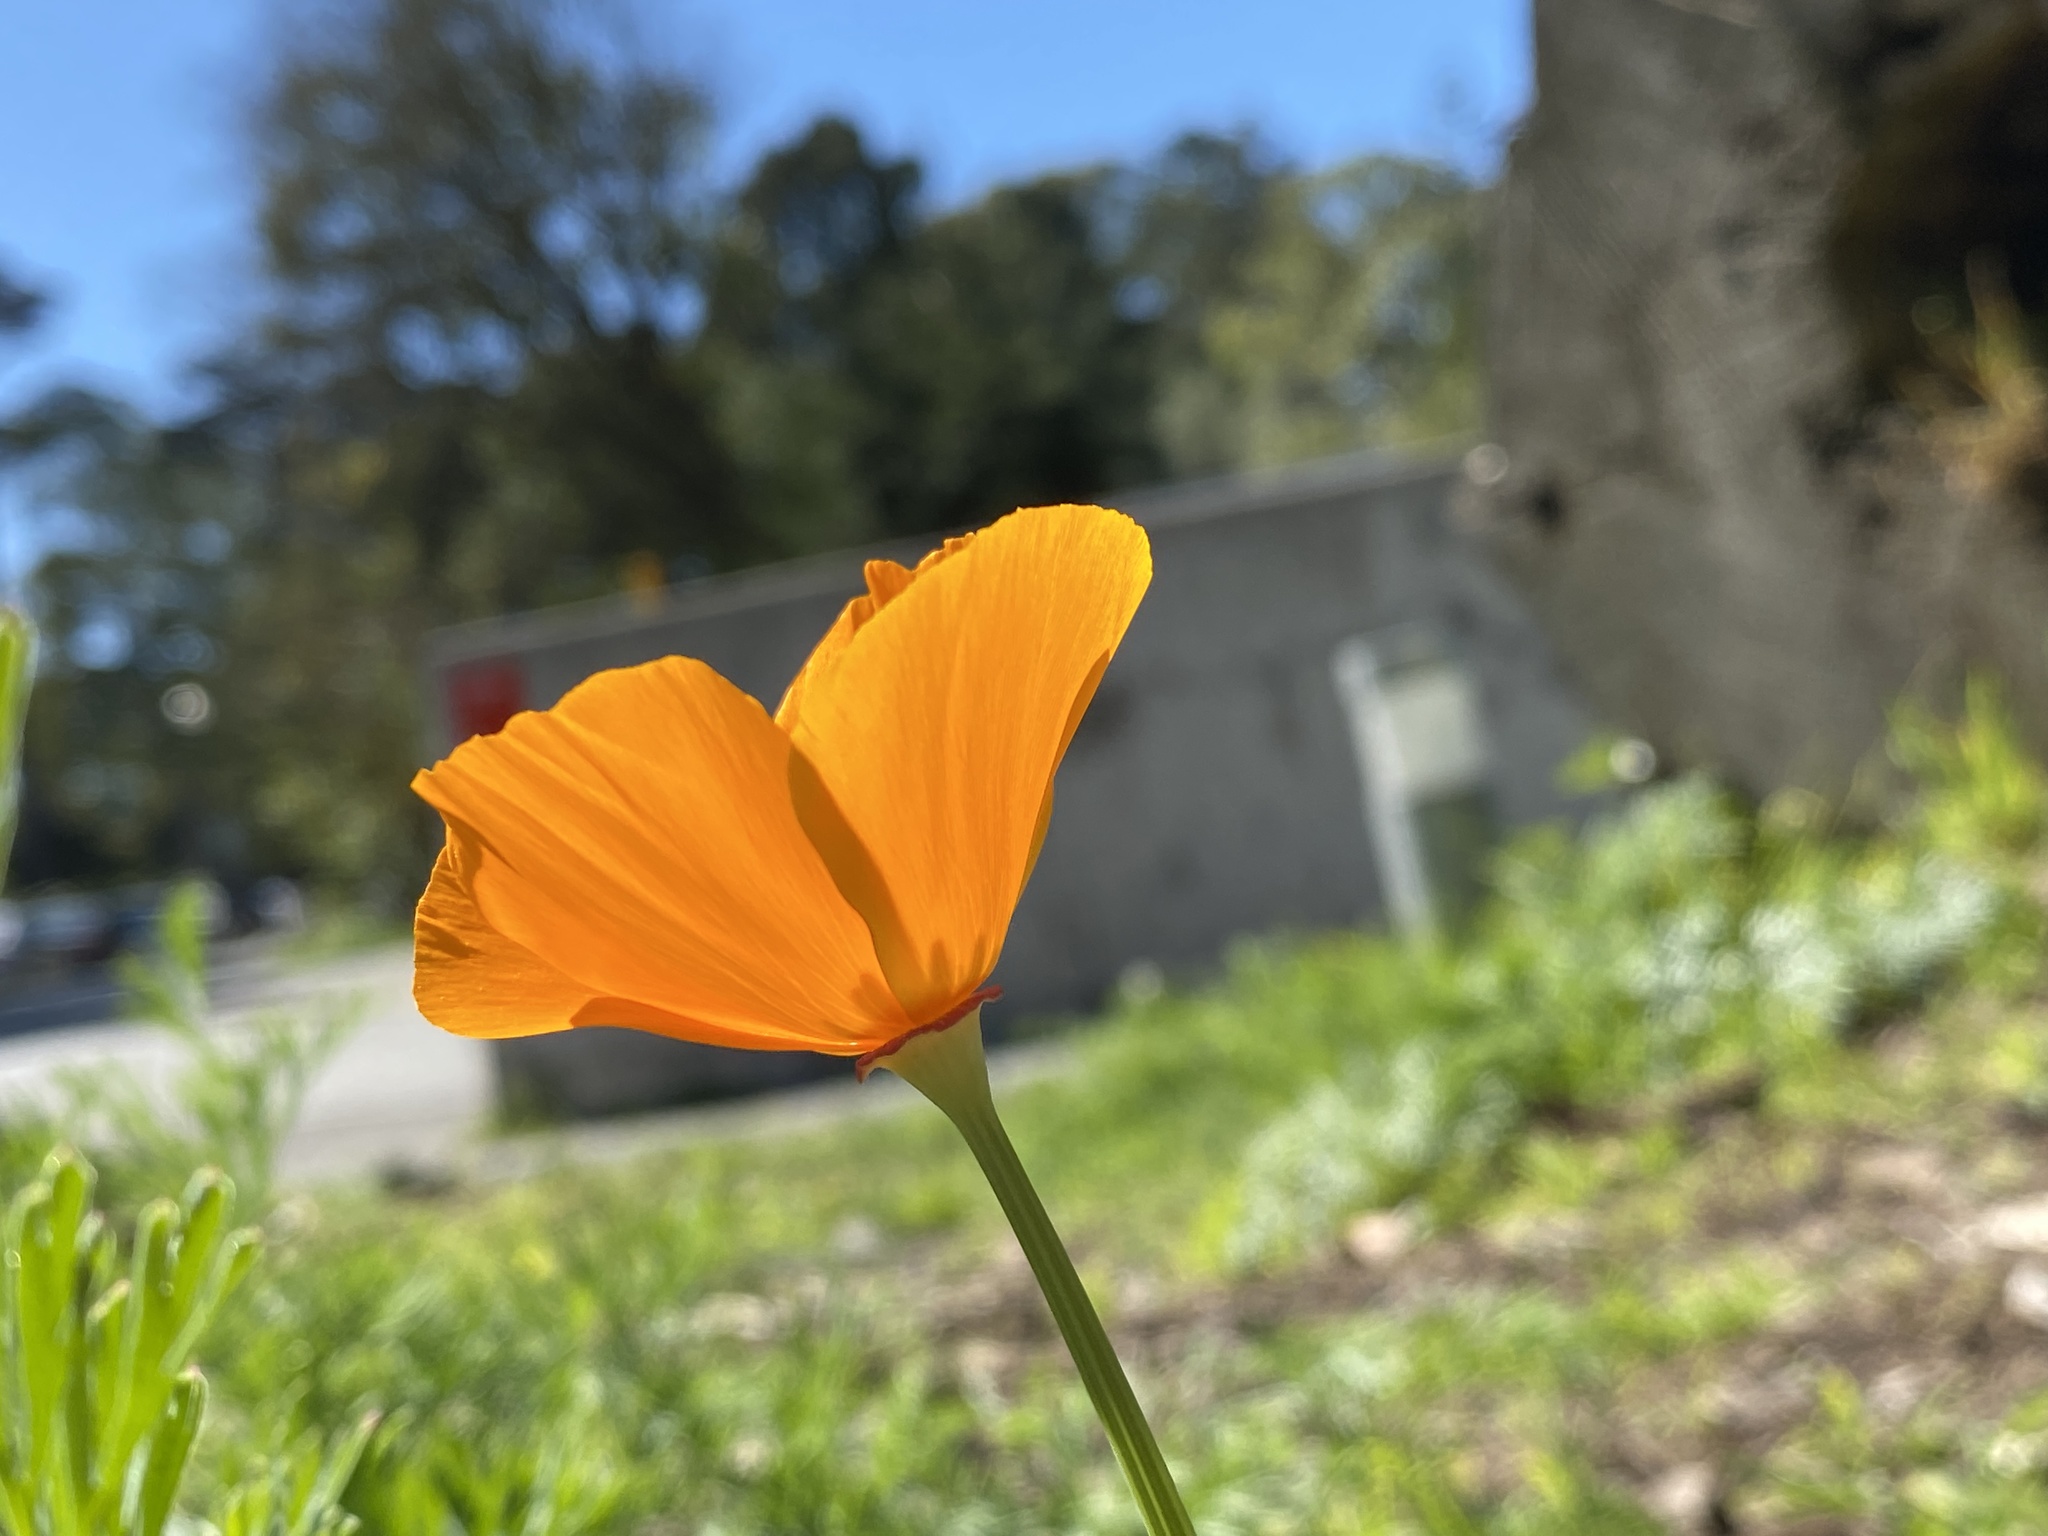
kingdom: Plantae
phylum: Tracheophyta
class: Magnoliopsida
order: Ranunculales
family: Papaveraceae
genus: Eschscholzia
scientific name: Eschscholzia californica
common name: California poppy
